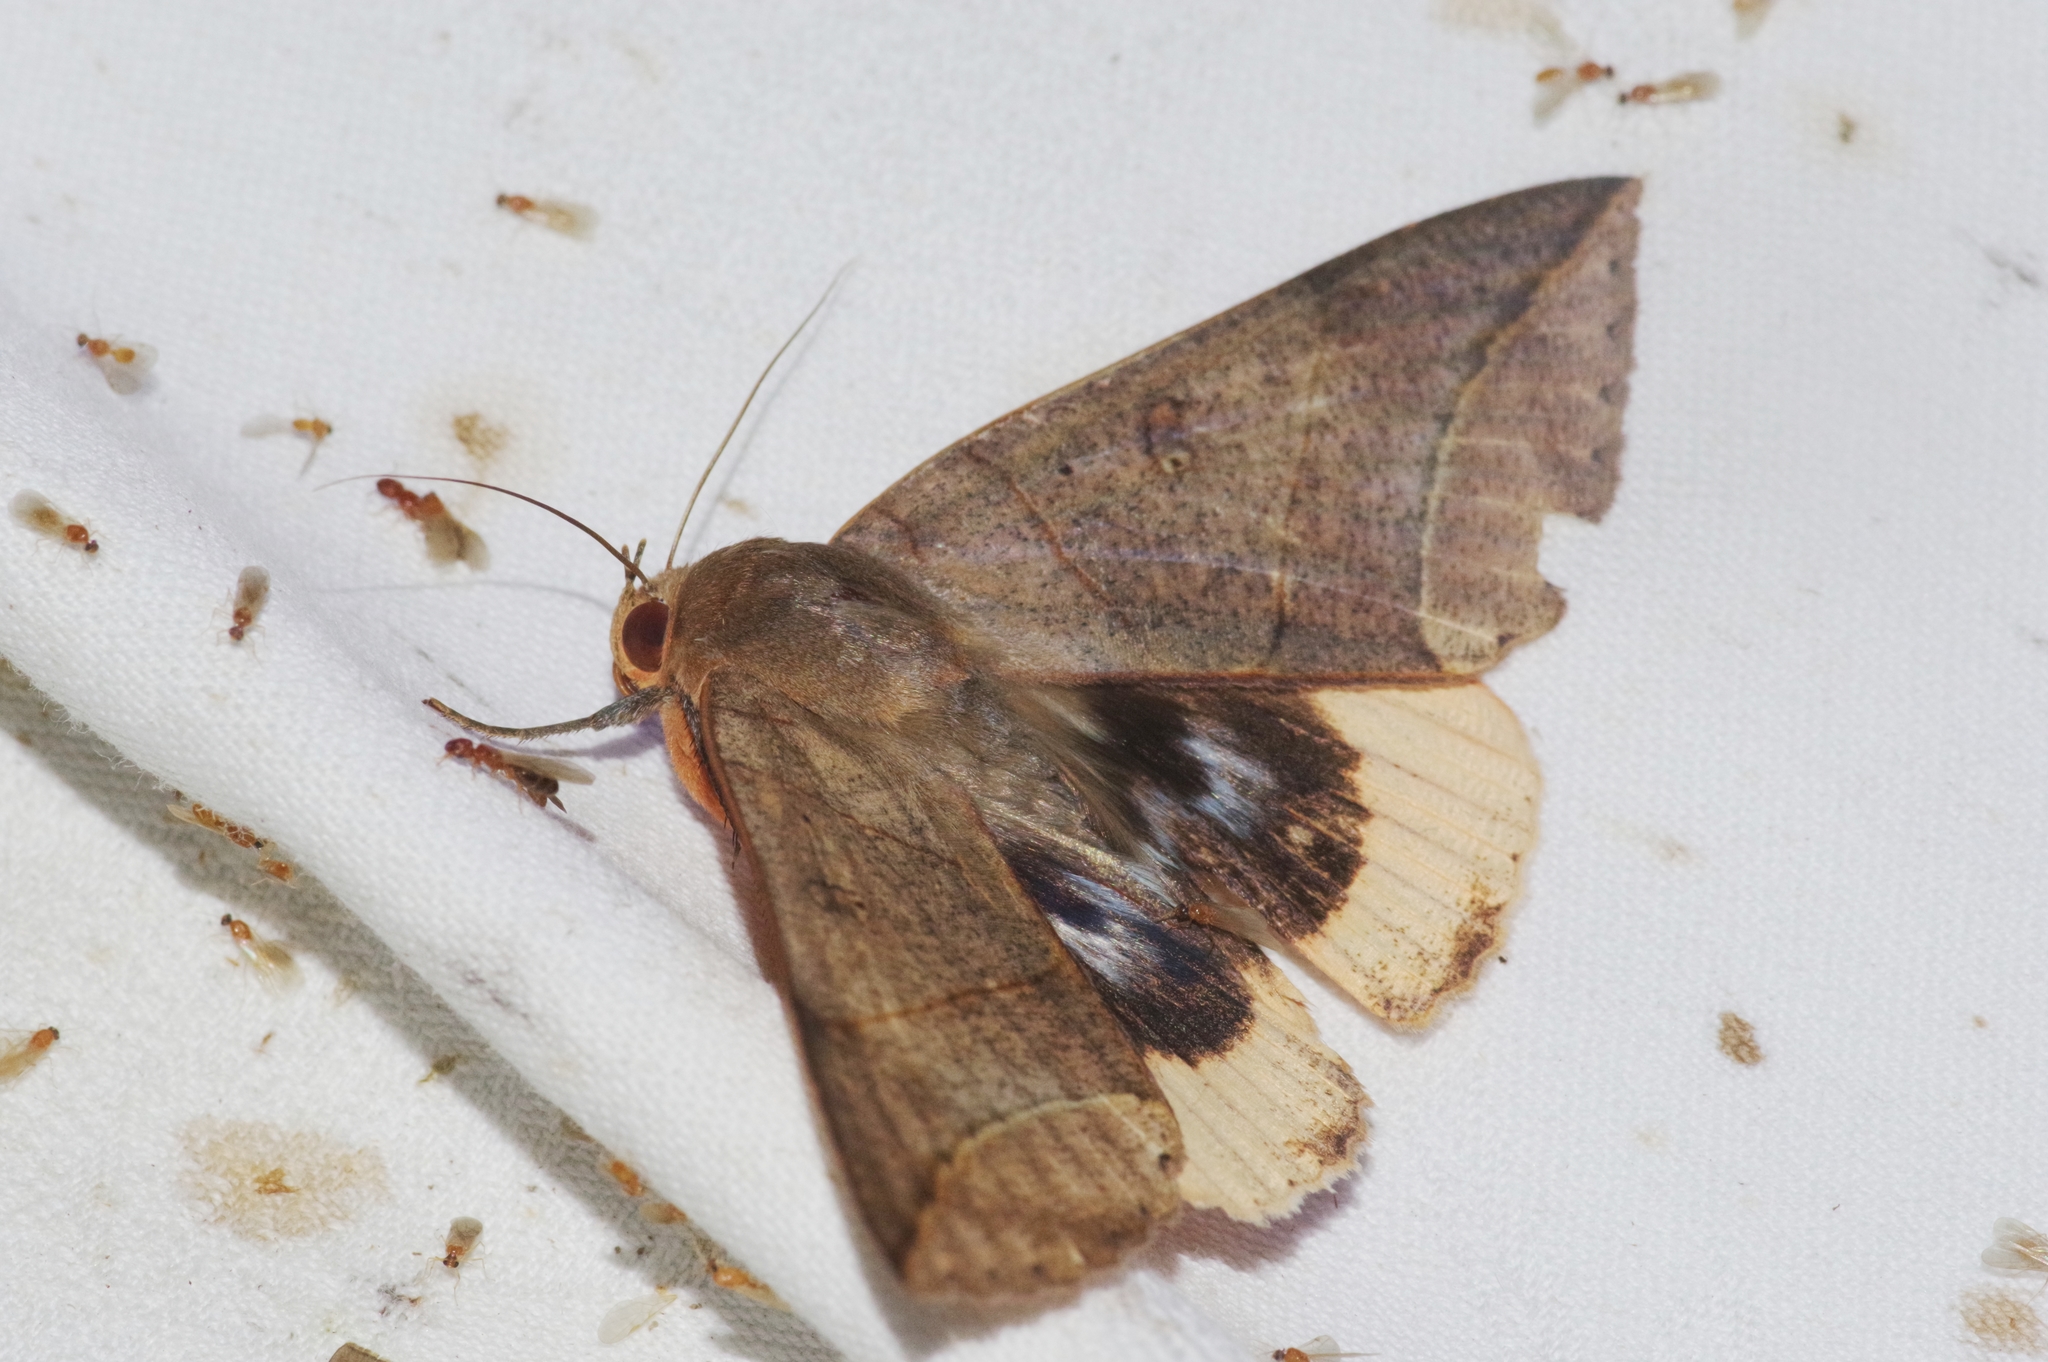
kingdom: Animalia
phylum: Arthropoda
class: Insecta
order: Lepidoptera
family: Erebidae
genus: Thyas
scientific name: Thyas juno
